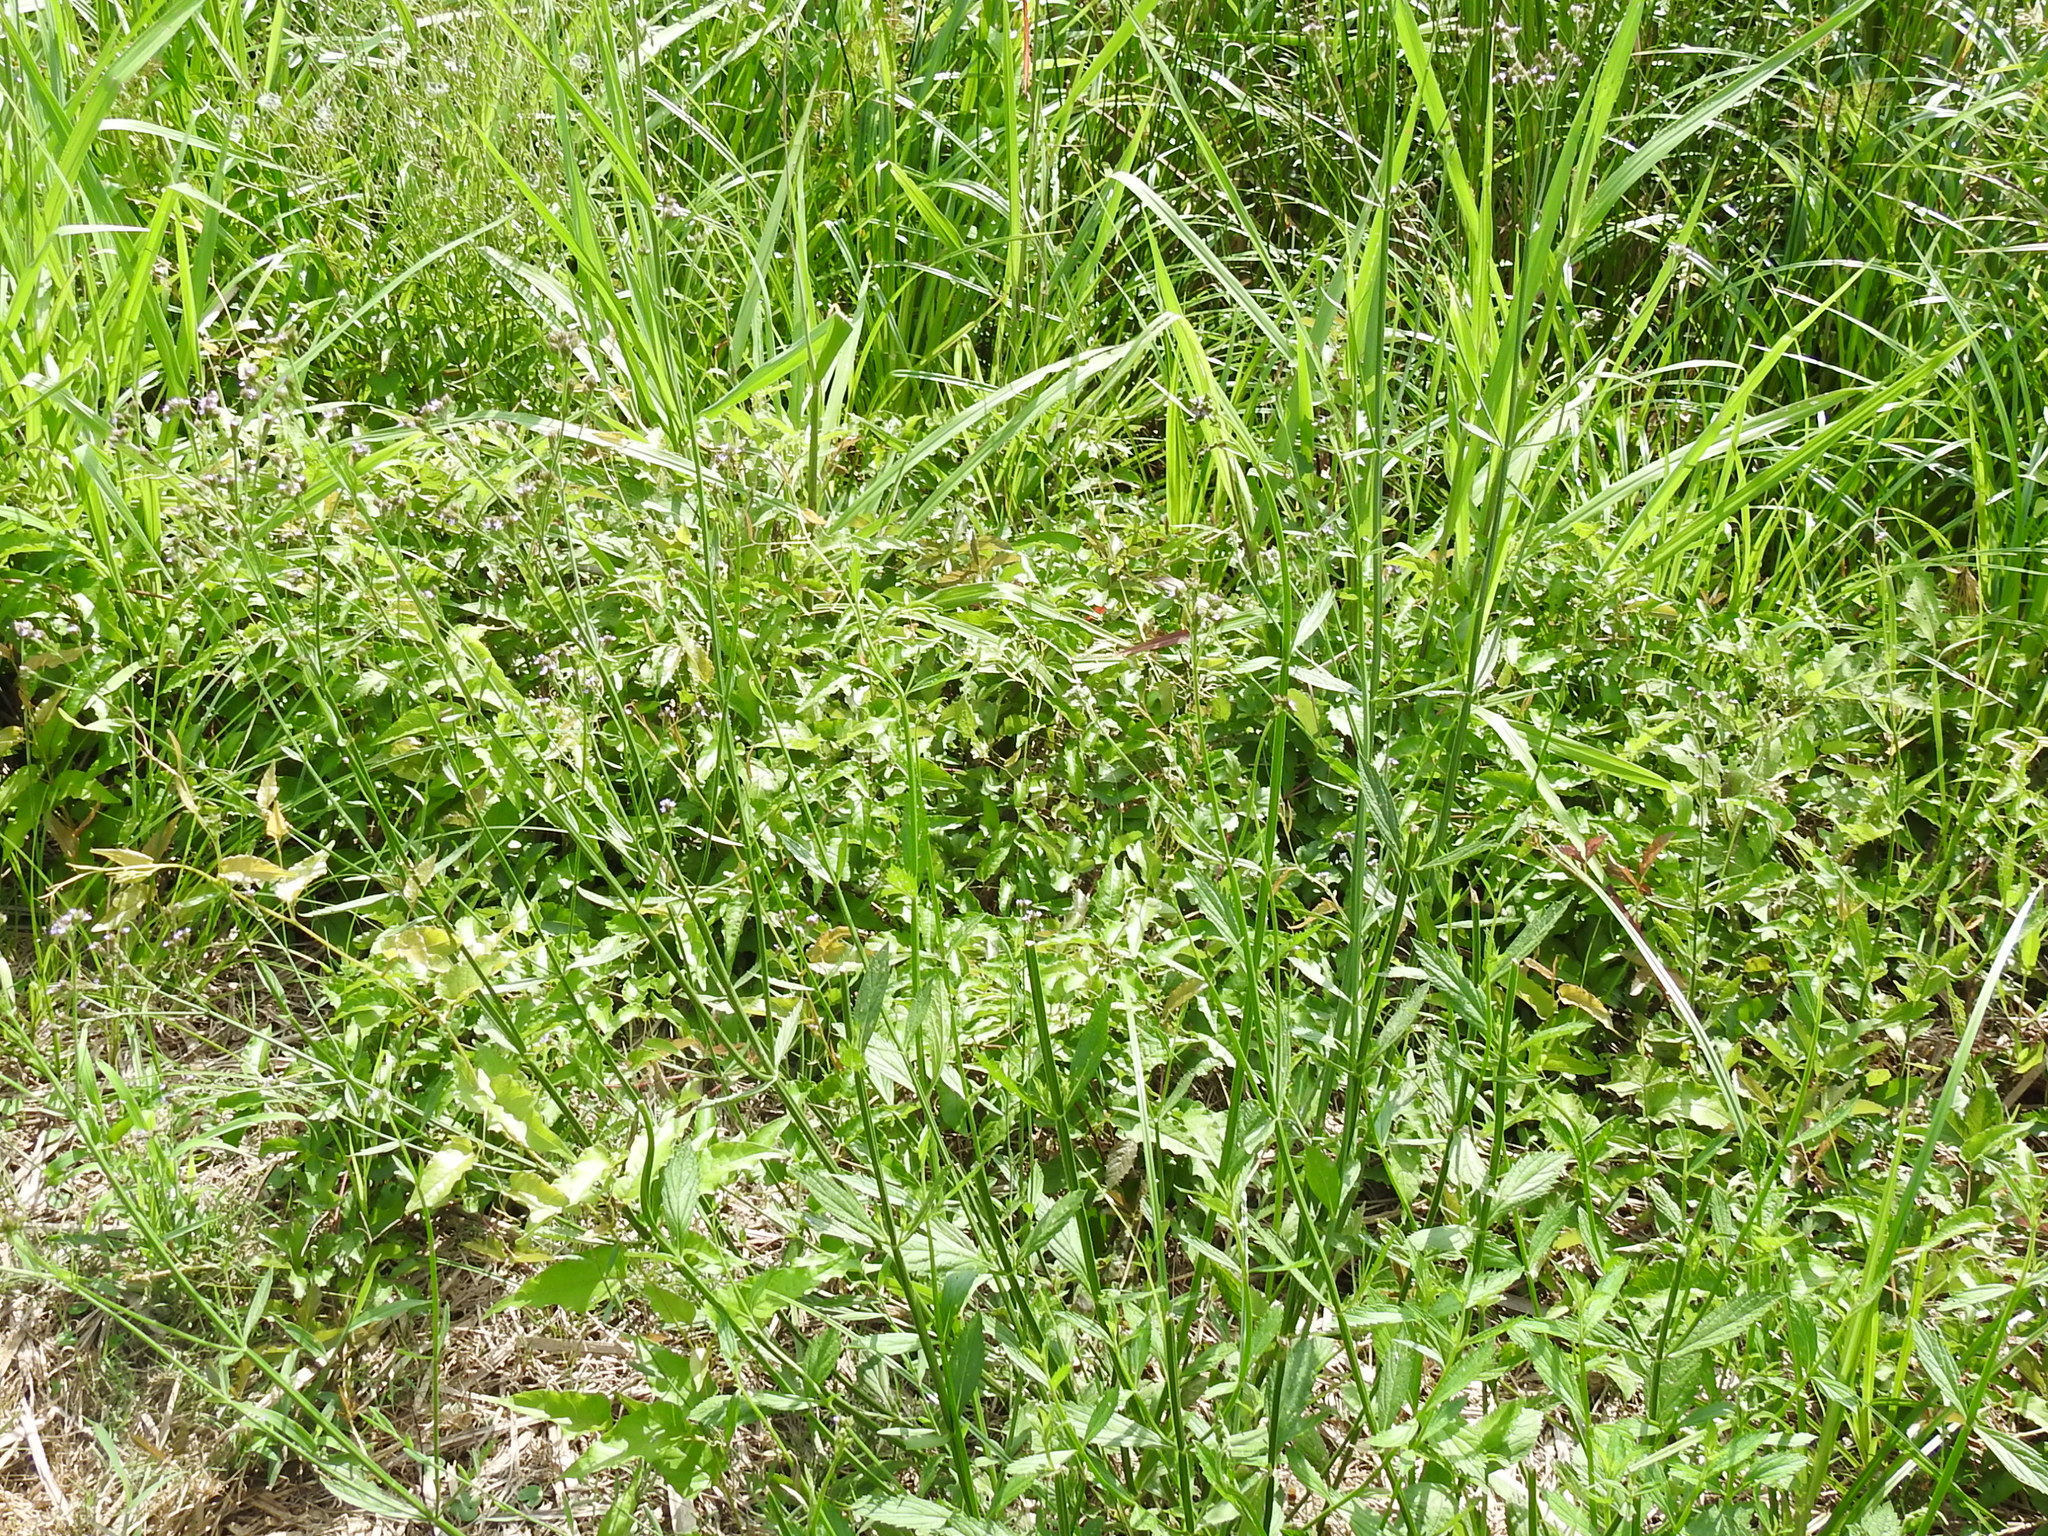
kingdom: Plantae
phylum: Tracheophyta
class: Magnoliopsida
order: Lamiales
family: Verbenaceae
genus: Verbena
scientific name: Verbena brasiliensis
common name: Brazilian vervain
